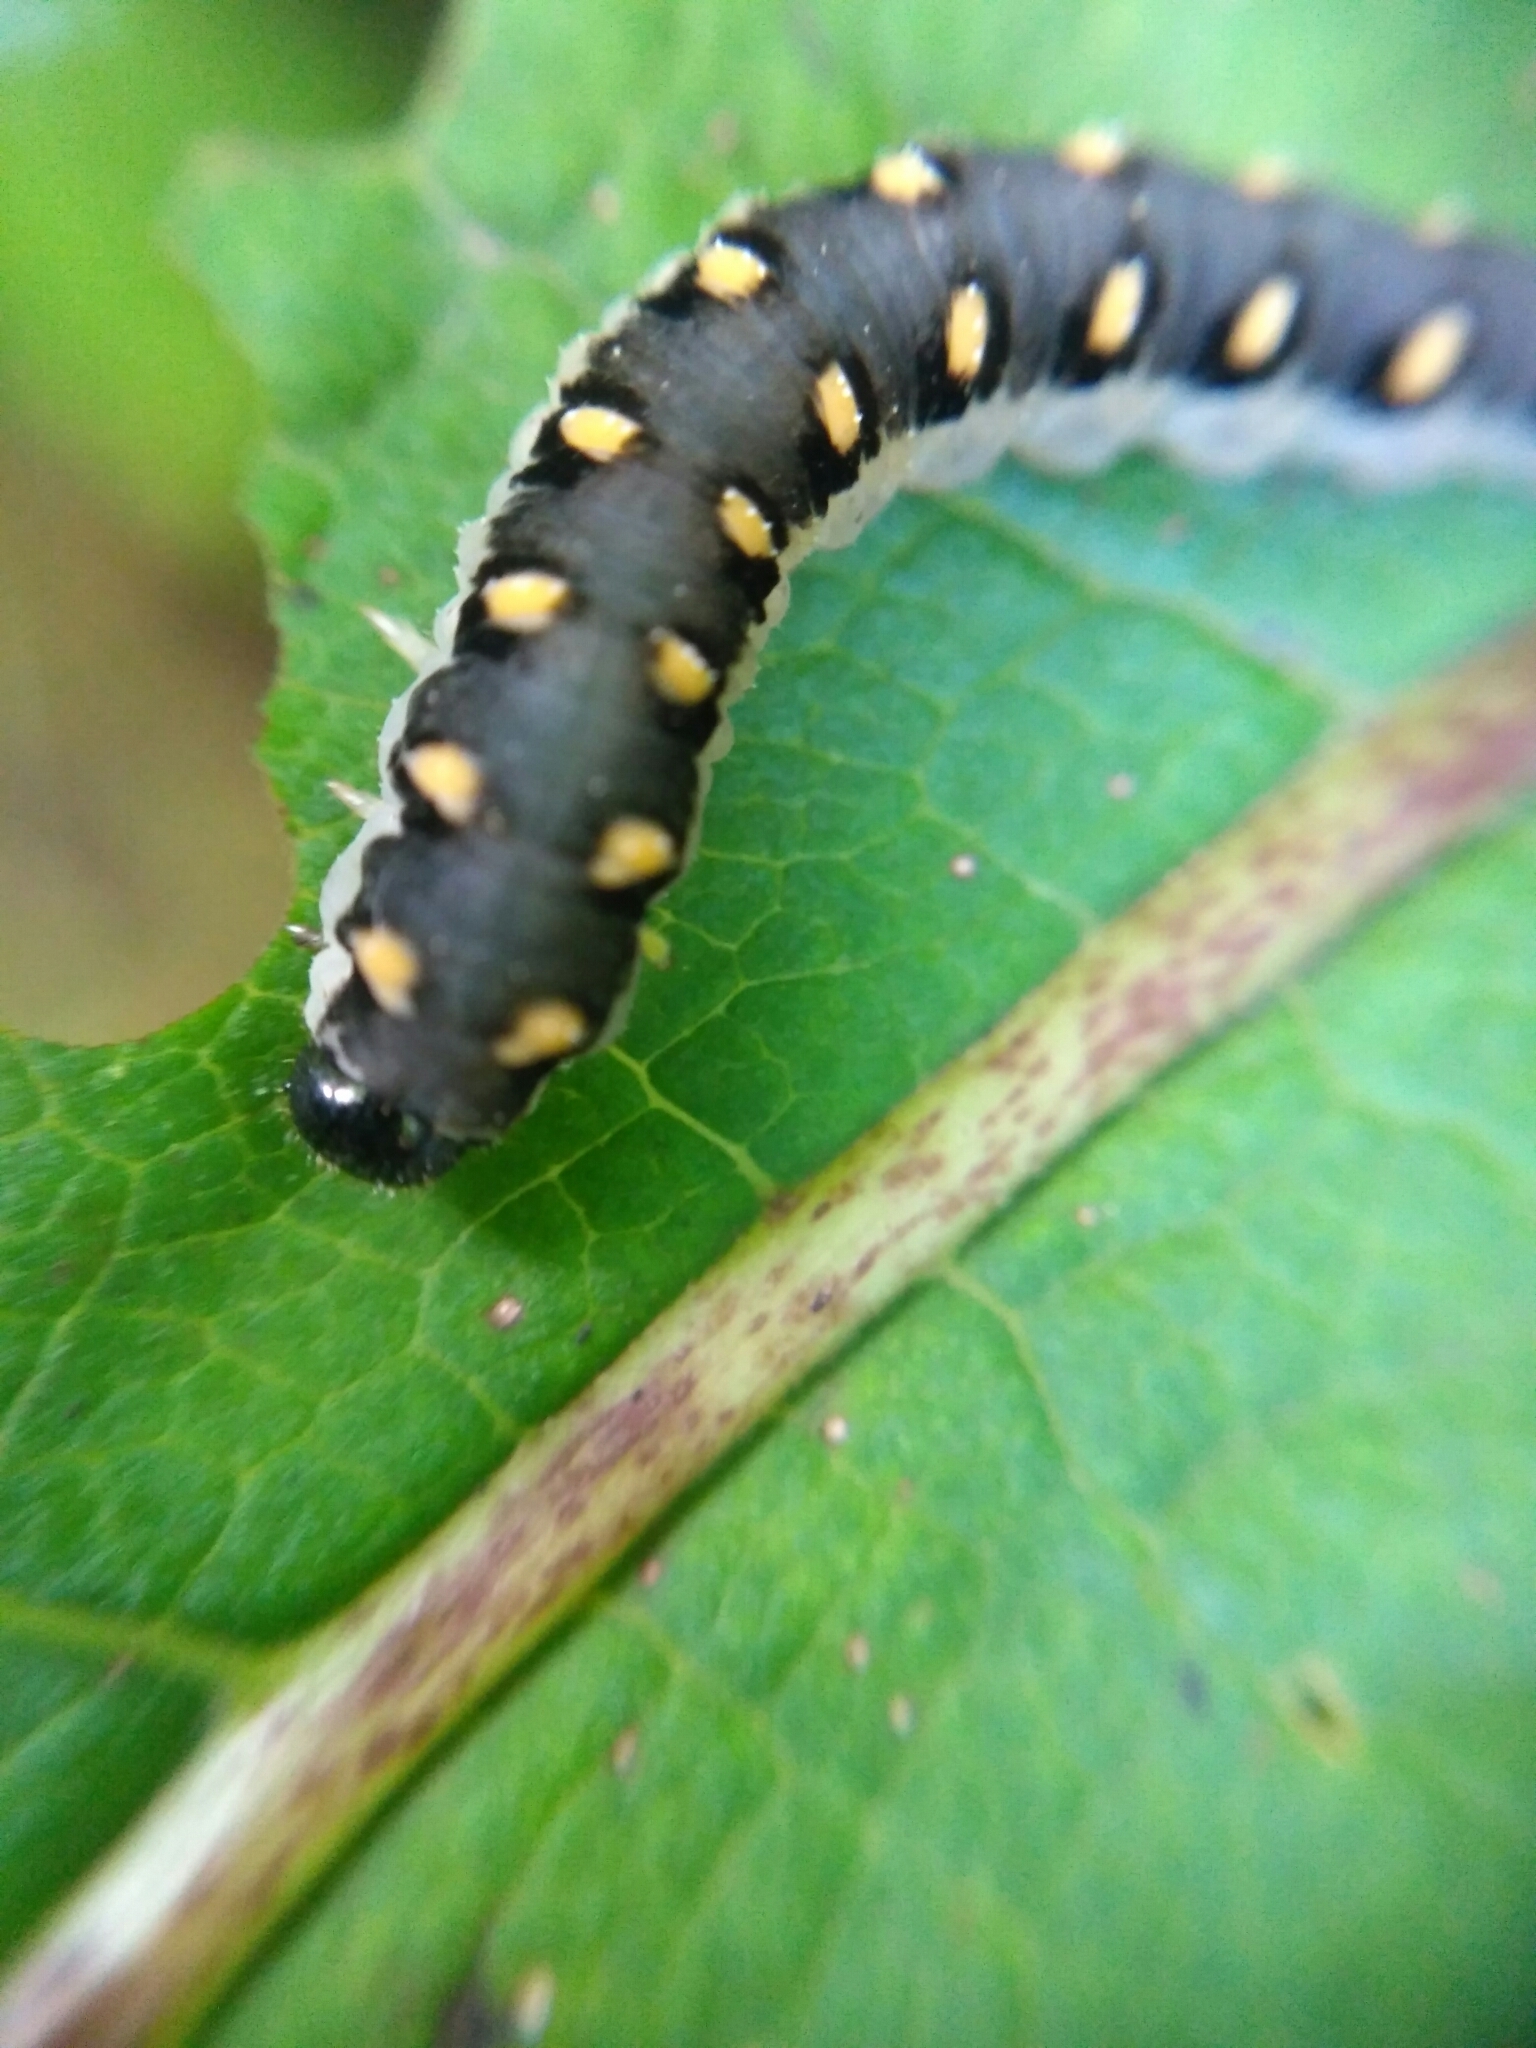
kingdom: Animalia
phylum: Arthropoda
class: Insecta
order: Hymenoptera
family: Tenthredinidae
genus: Tenthredo
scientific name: Tenthredo mandibularis
